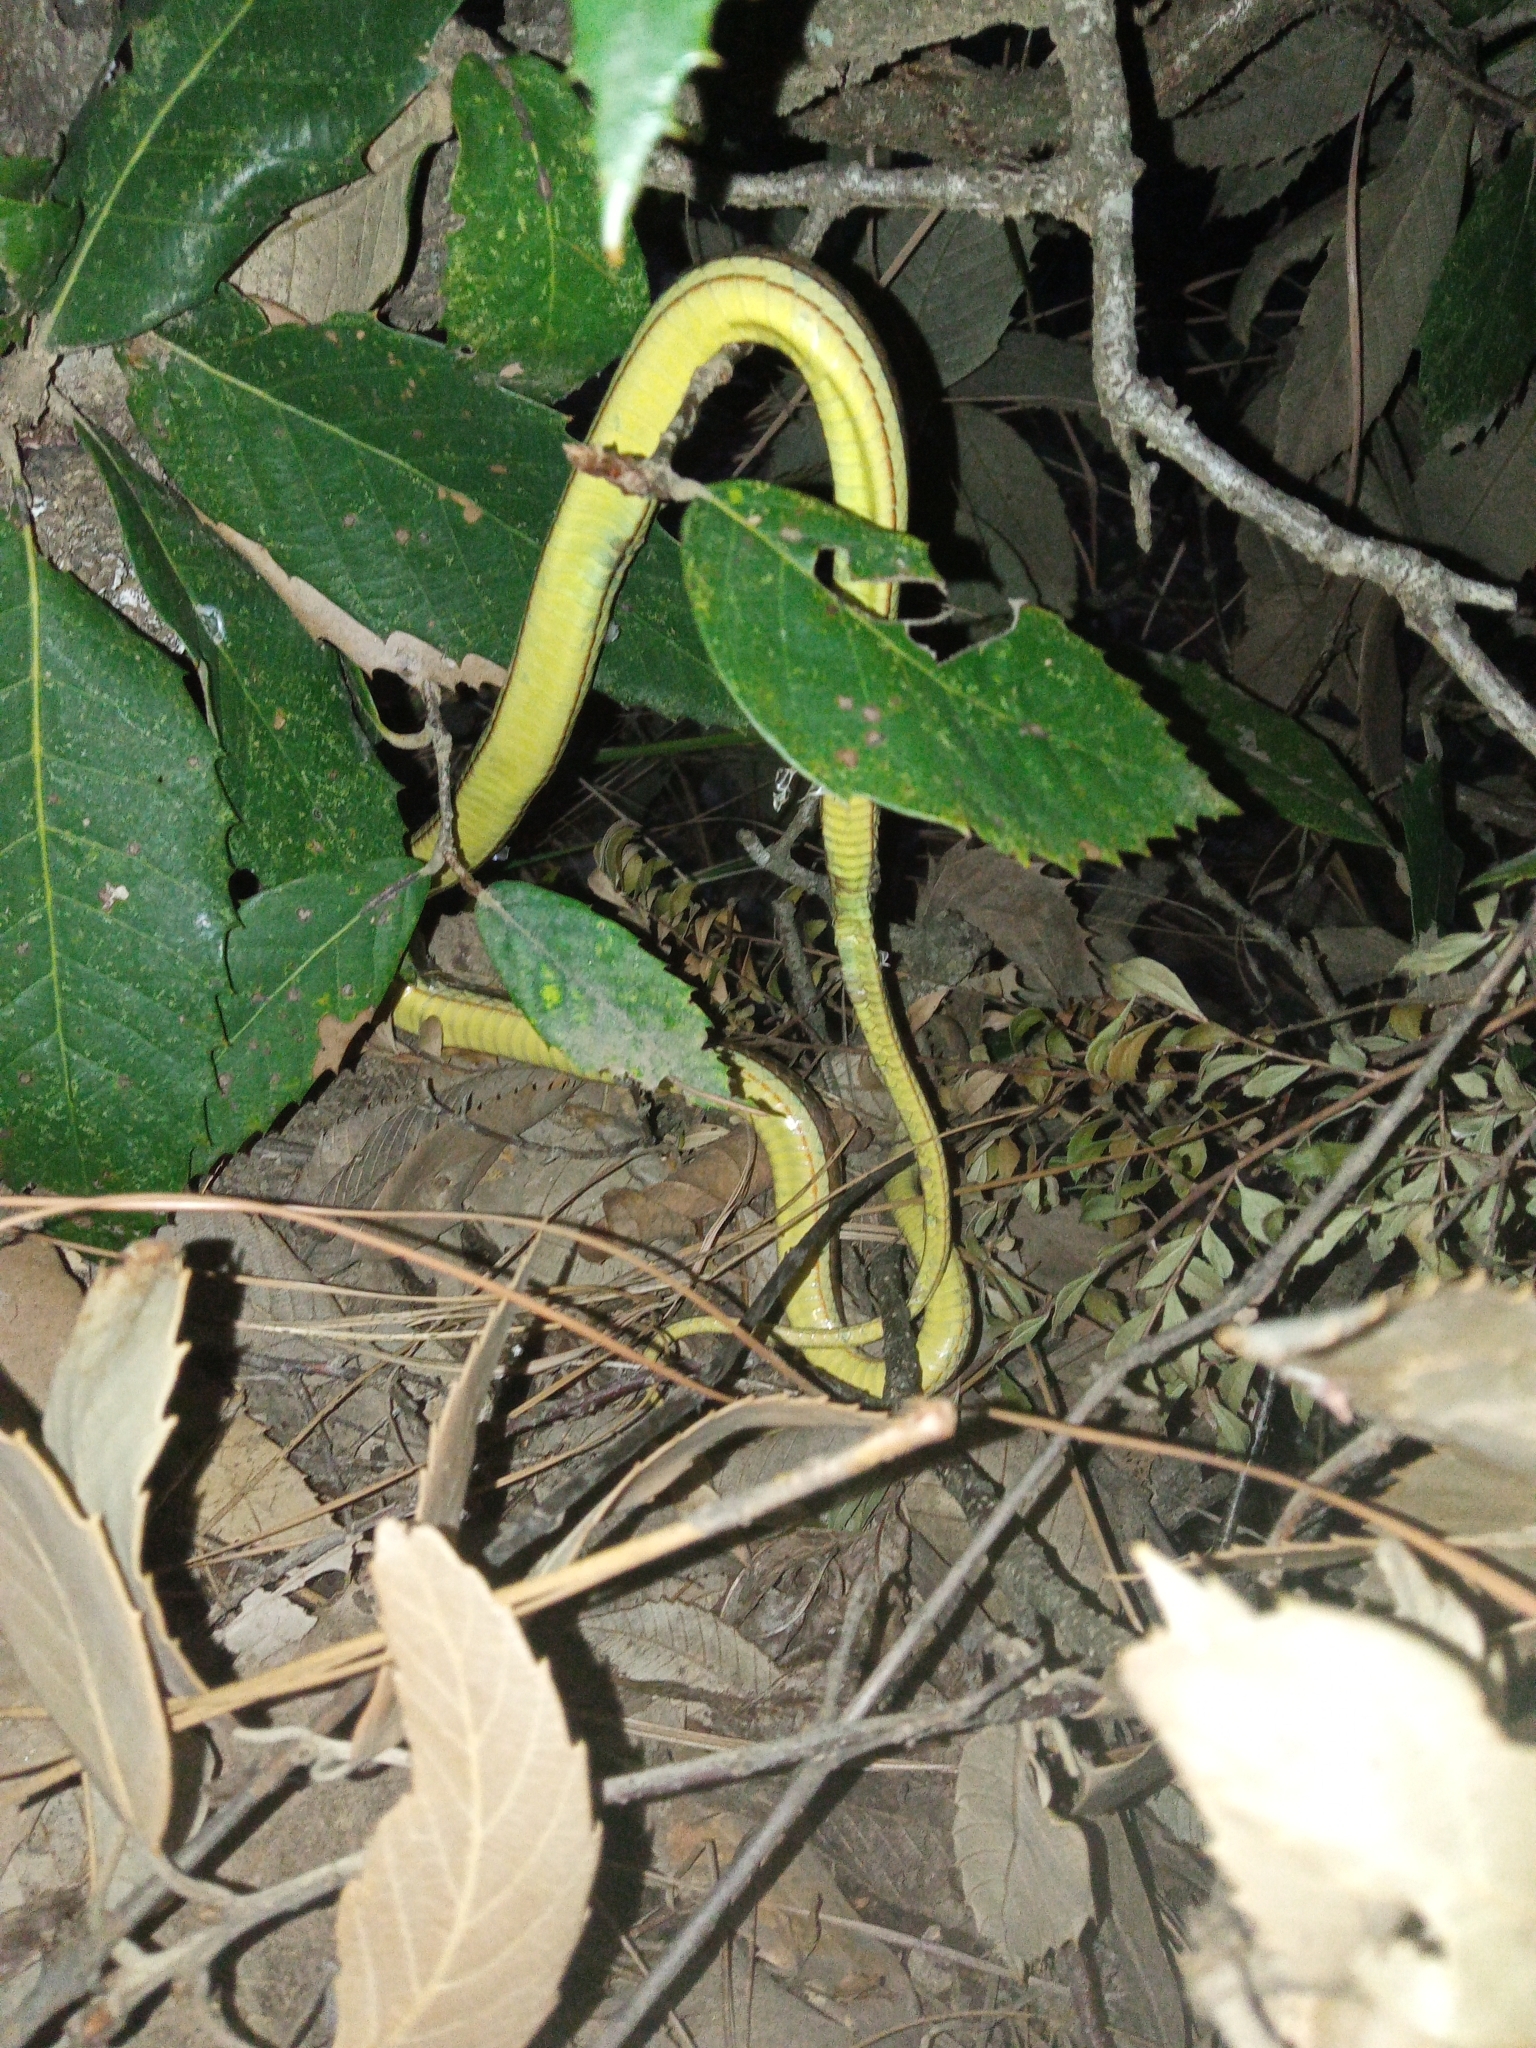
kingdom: Animalia
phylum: Chordata
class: Squamata
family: Psammophiidae
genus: Psammophis
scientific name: Psammophis condanarus
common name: Sand snake
